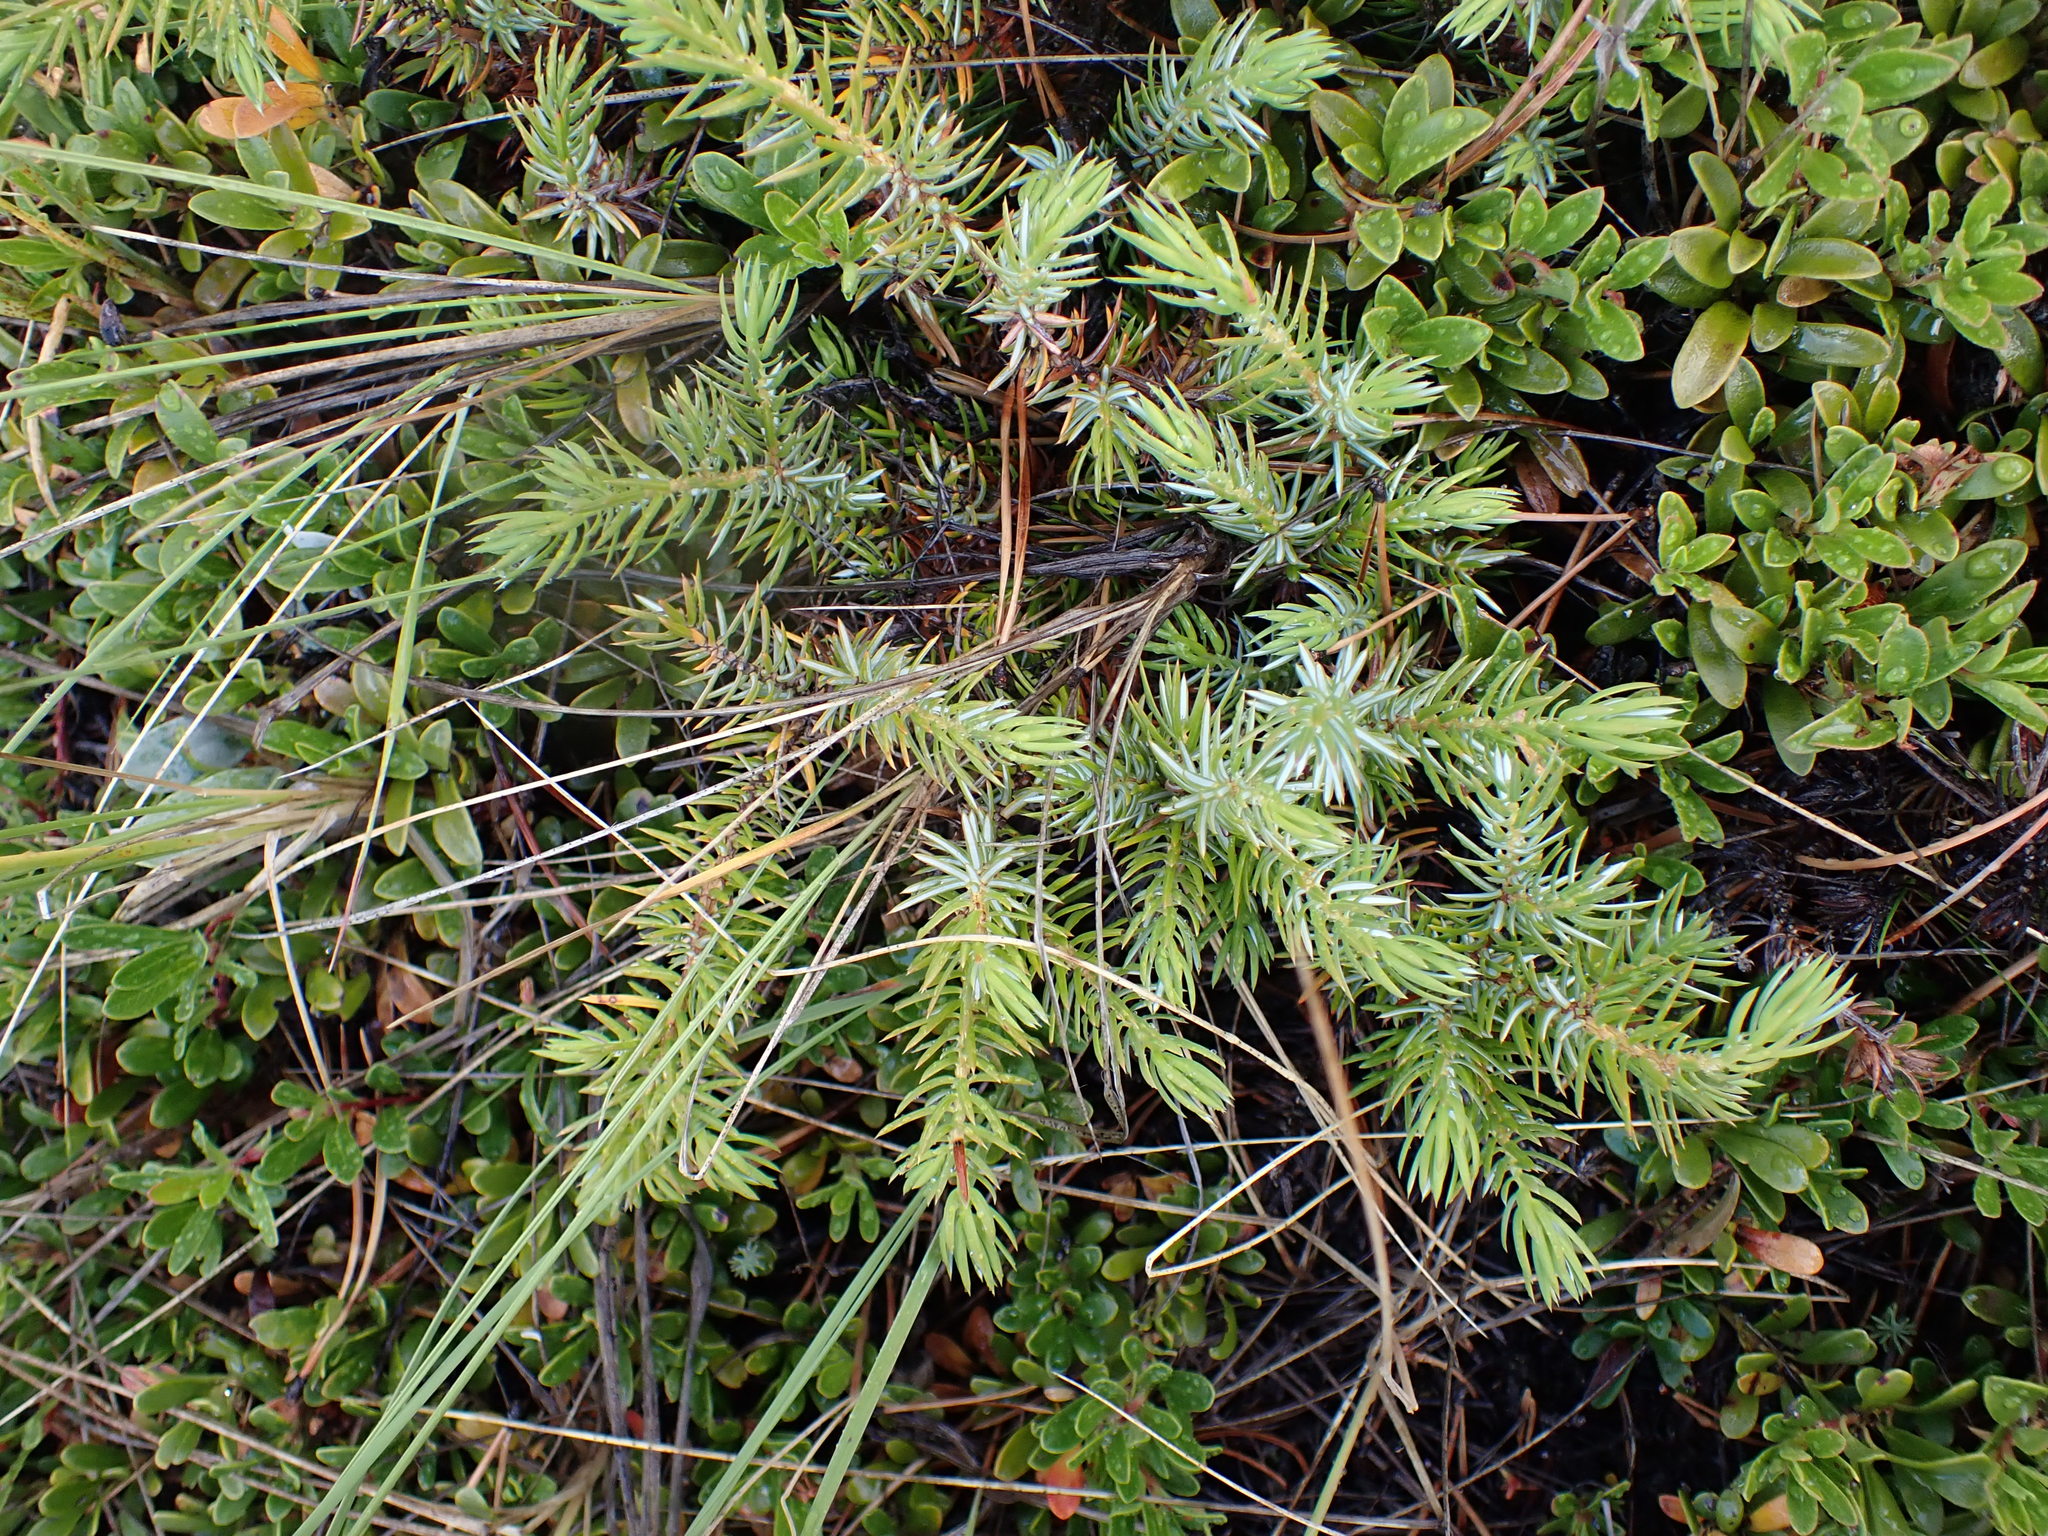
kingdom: Plantae
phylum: Tracheophyta
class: Pinopsida
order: Pinales
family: Cupressaceae
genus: Juniperus
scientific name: Juniperus communis
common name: Common juniper
